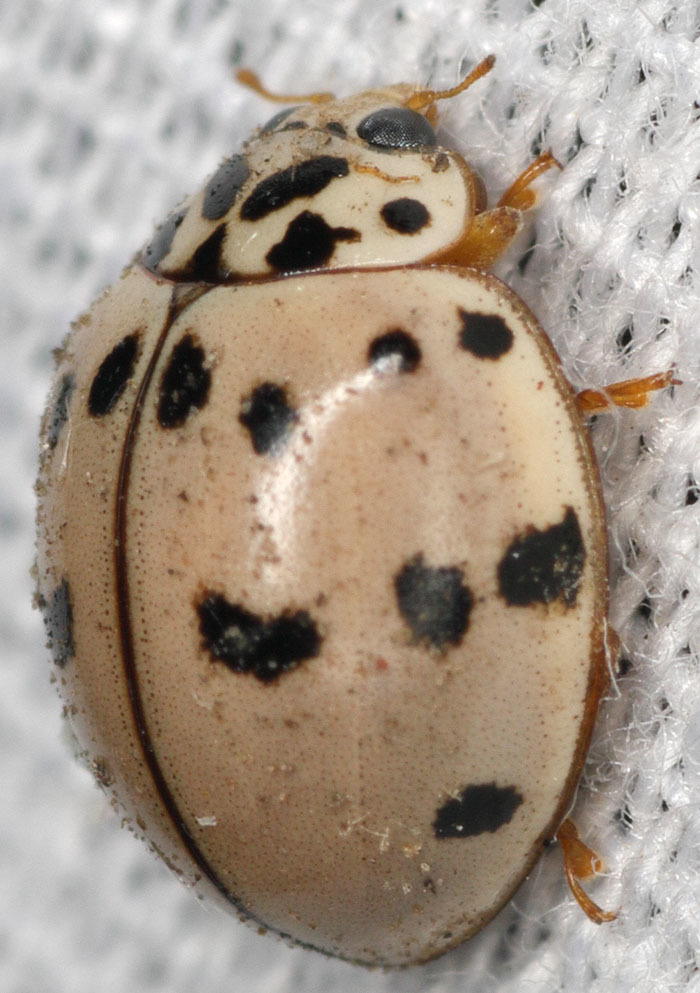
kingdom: Animalia
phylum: Arthropoda
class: Insecta
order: Coleoptera
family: Coccinellidae
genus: Olla
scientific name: Olla v-nigrum
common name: Ashy gray lady beetle
